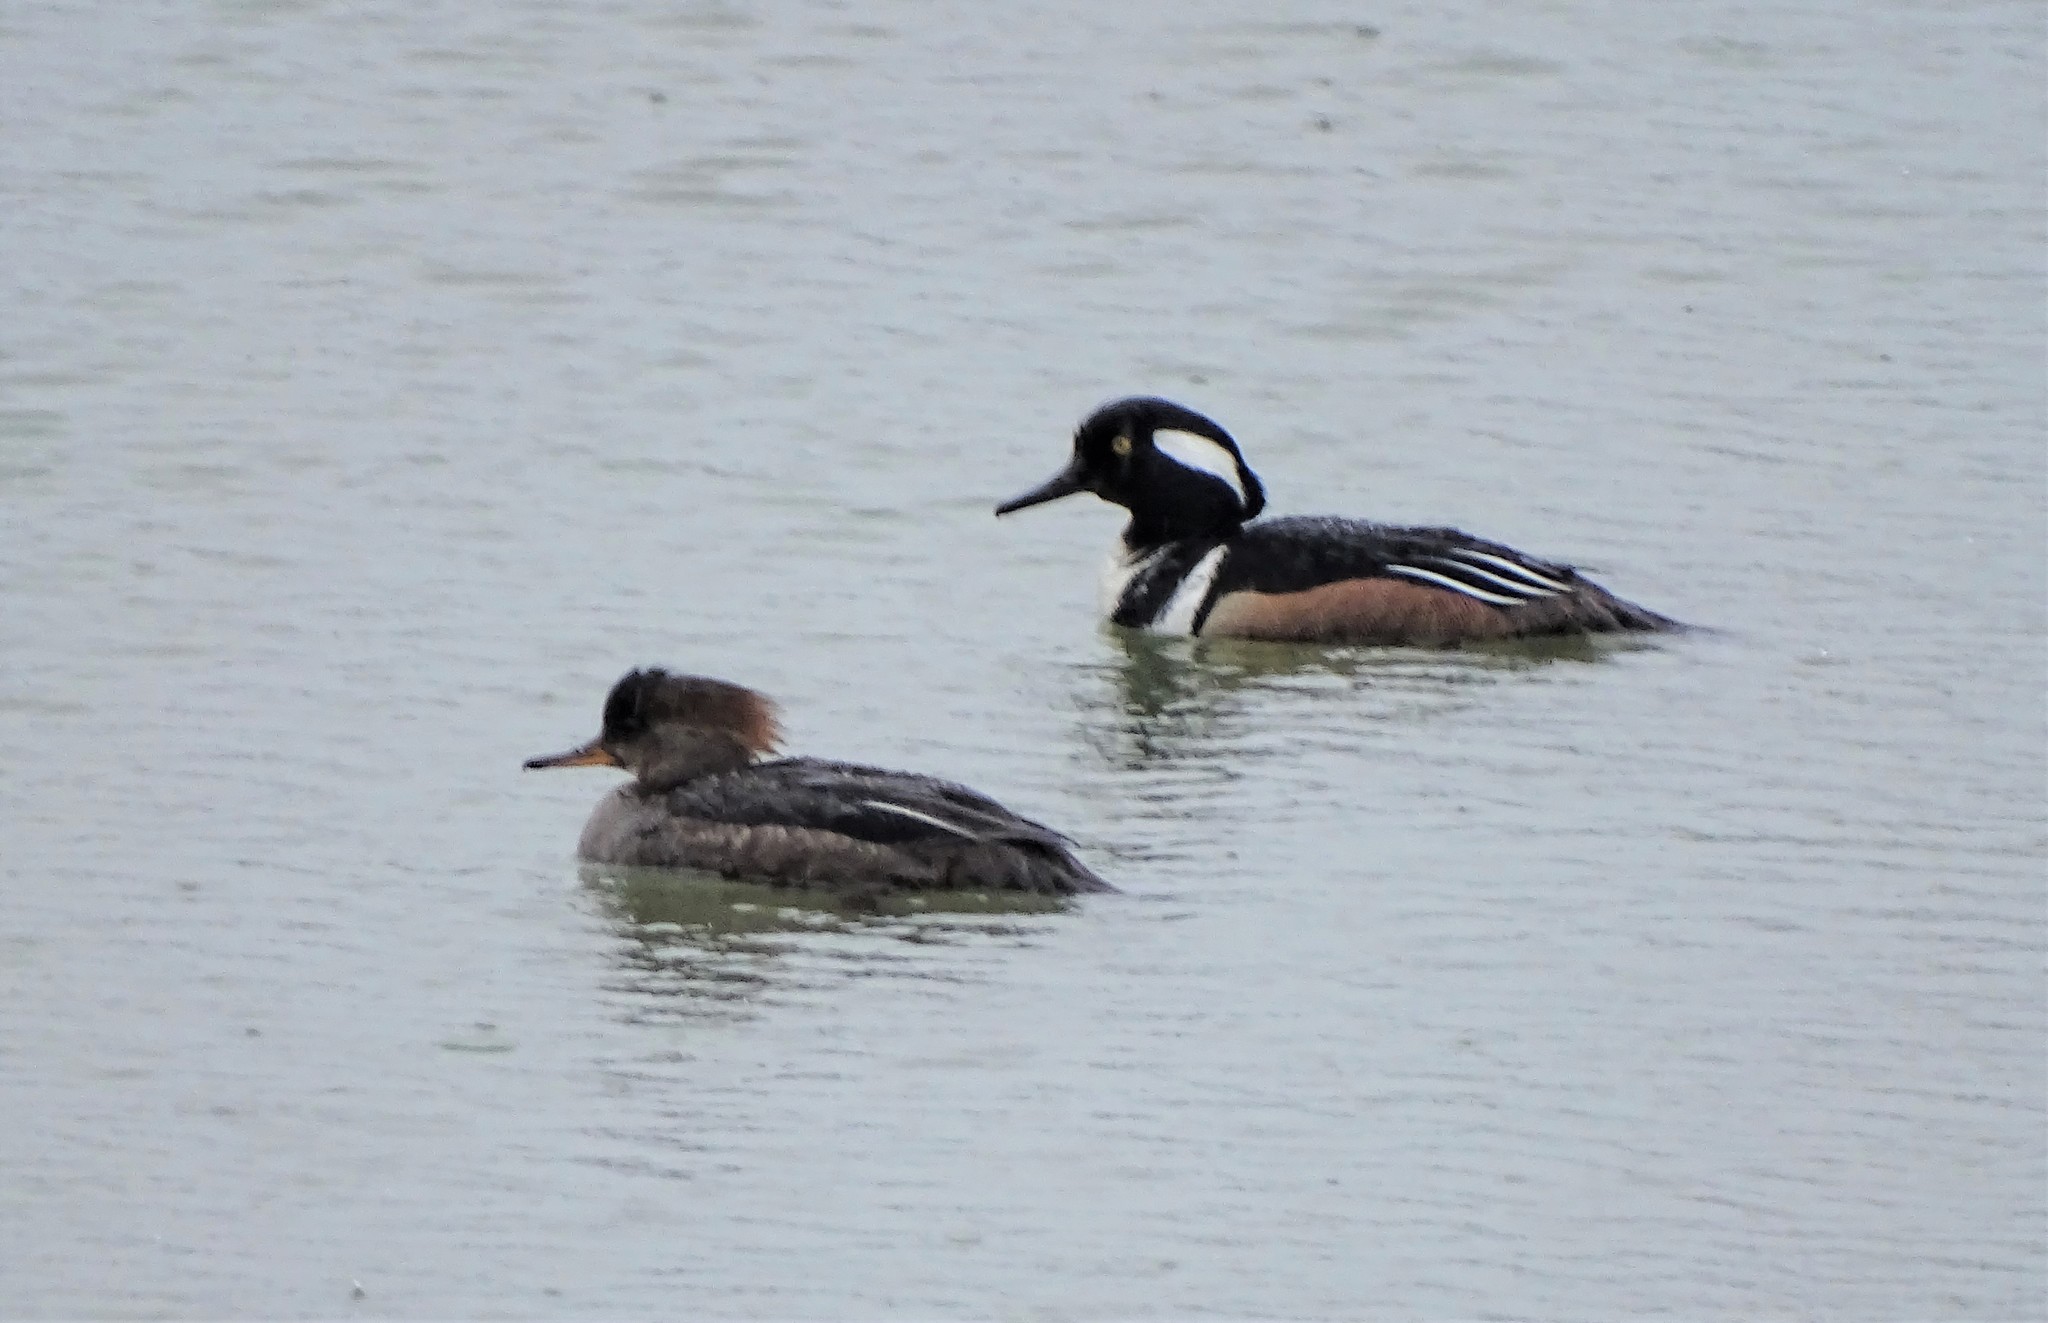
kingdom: Animalia
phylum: Chordata
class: Aves
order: Anseriformes
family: Anatidae
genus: Lophodytes
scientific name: Lophodytes cucullatus
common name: Hooded merganser
